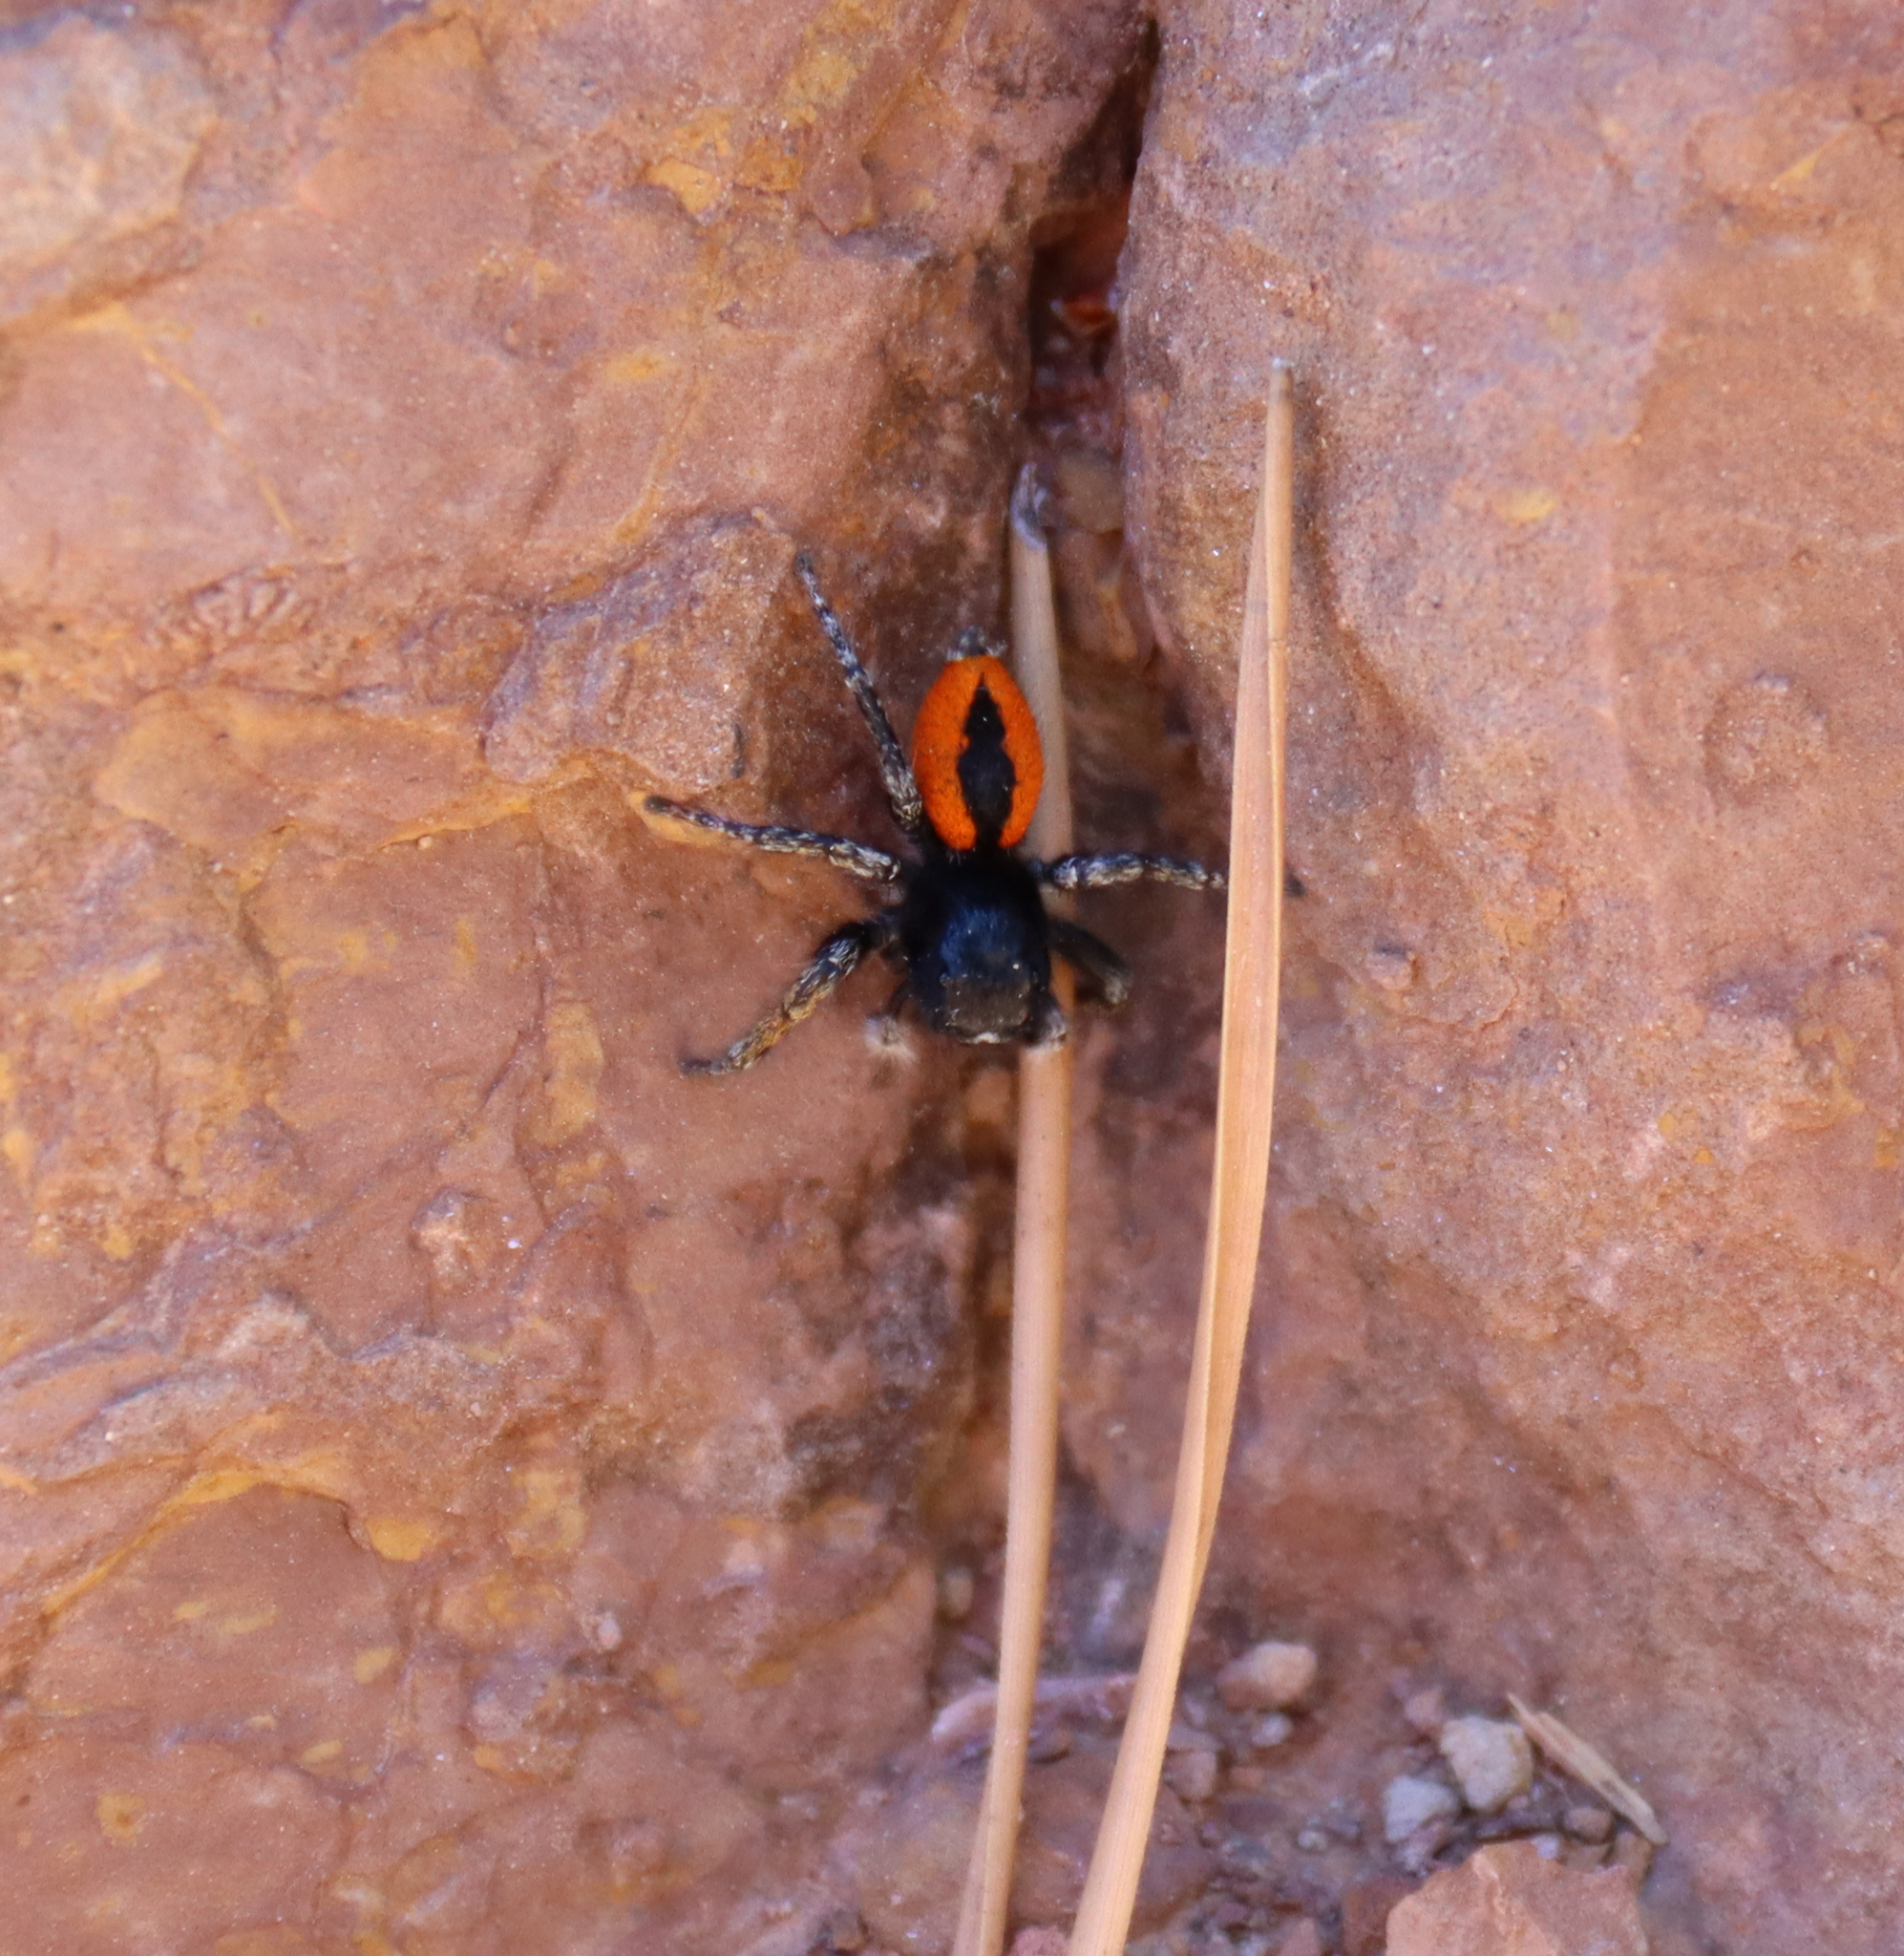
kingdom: Animalia
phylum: Arthropoda
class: Arachnida
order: Araneae
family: Salticidae
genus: Philaeus
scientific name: Philaeus chrysops
